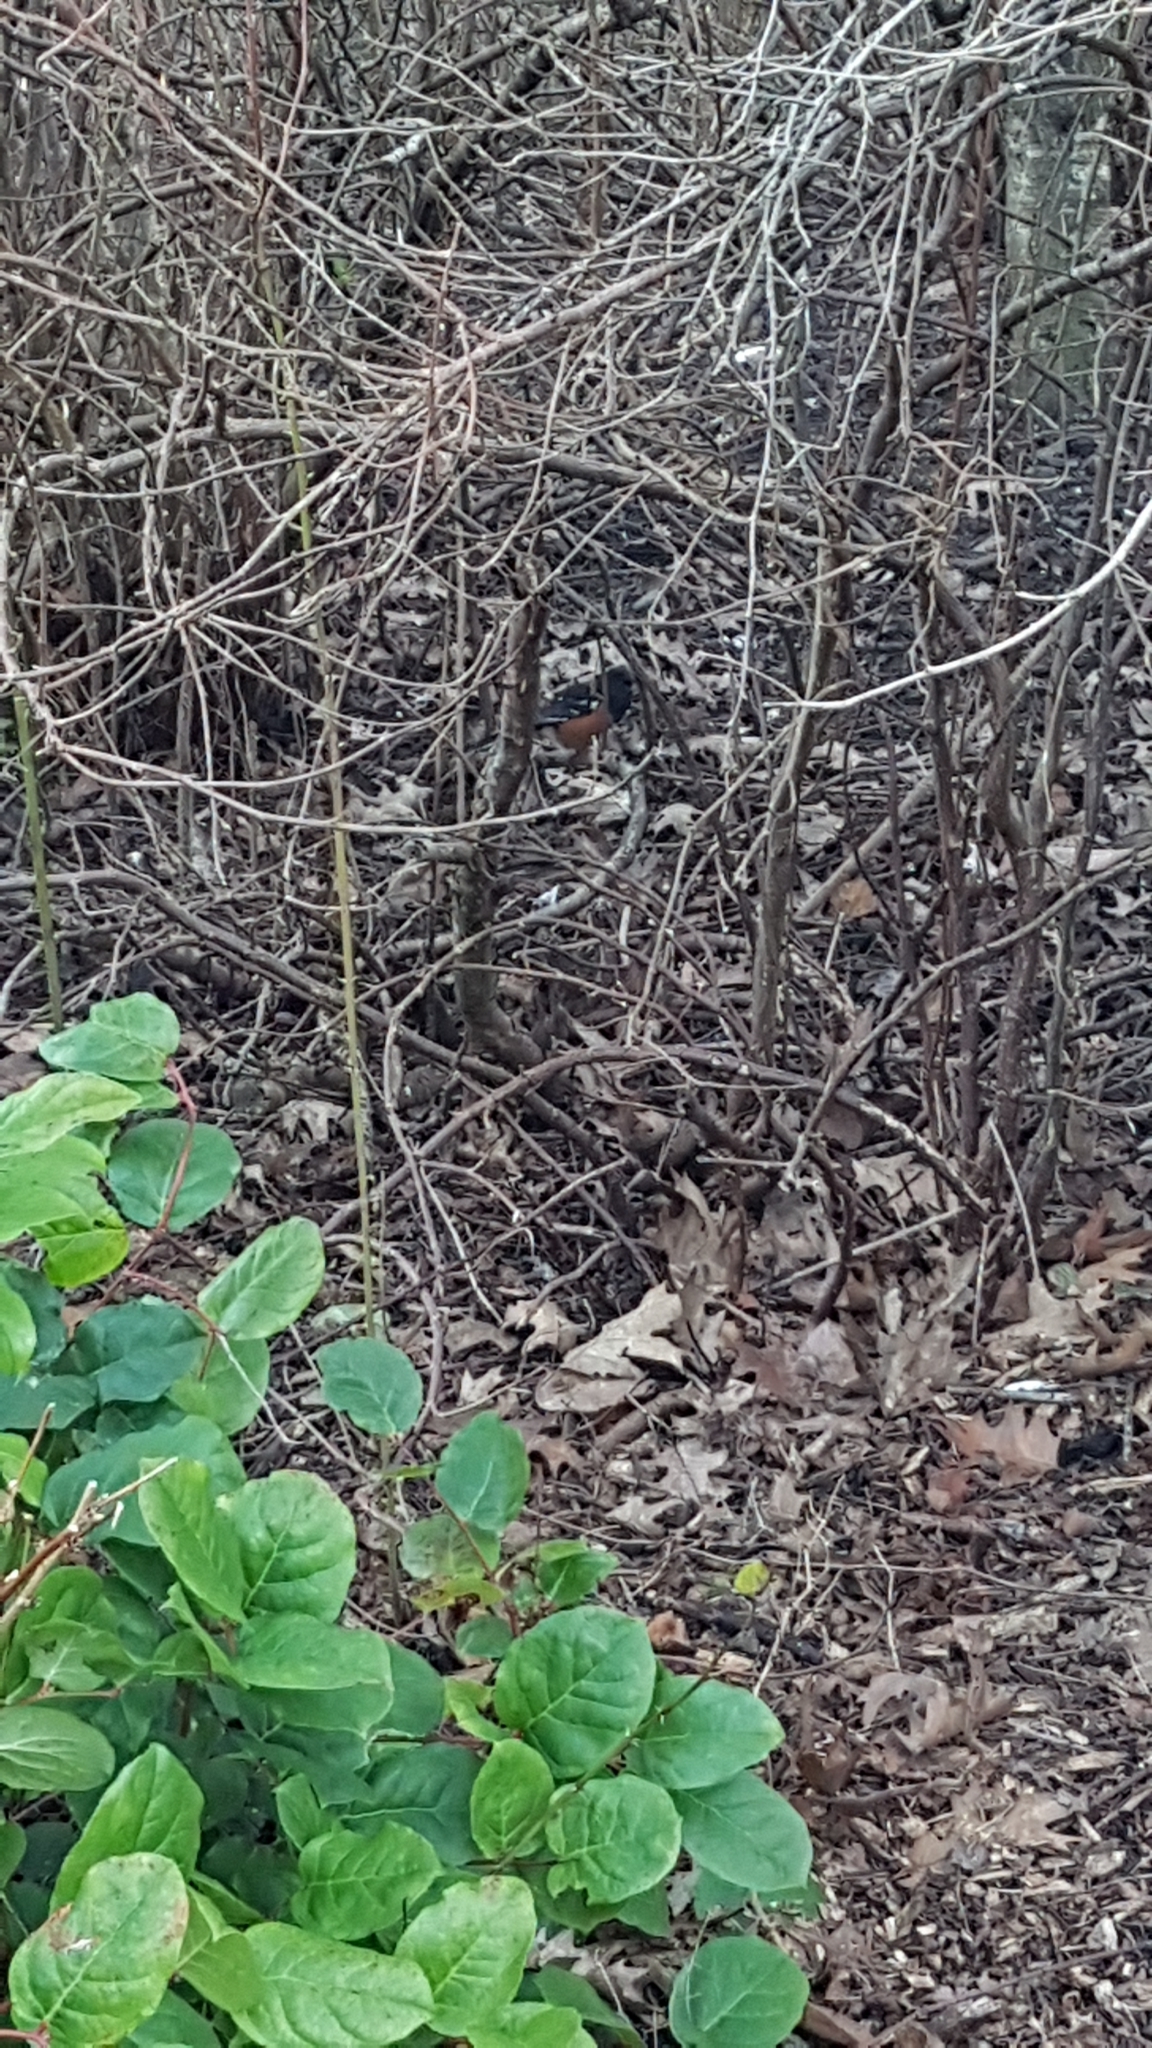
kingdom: Animalia
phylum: Chordata
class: Aves
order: Passeriformes
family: Passerellidae
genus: Pipilo
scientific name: Pipilo maculatus
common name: Spotted towhee
